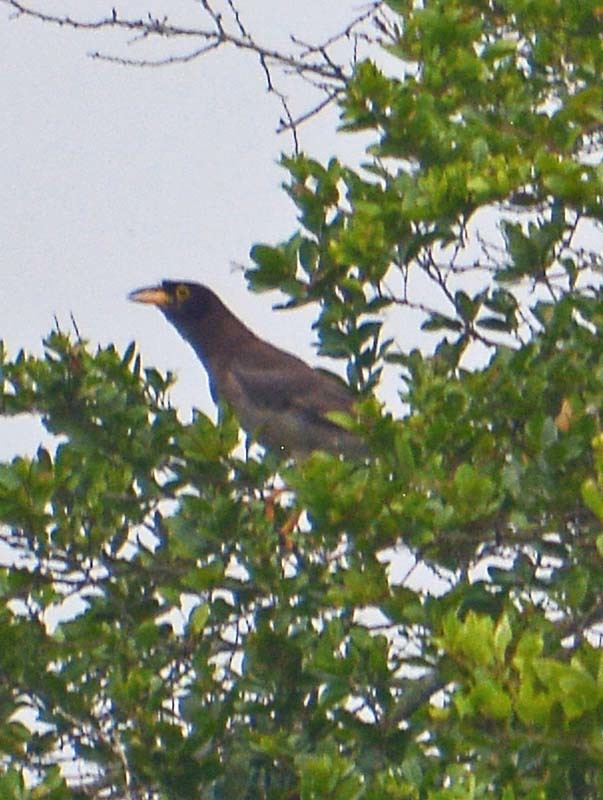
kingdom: Animalia
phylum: Chordata
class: Aves
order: Passeriformes
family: Corvidae
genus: Psilorhinus
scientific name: Psilorhinus morio
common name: Brown jay
